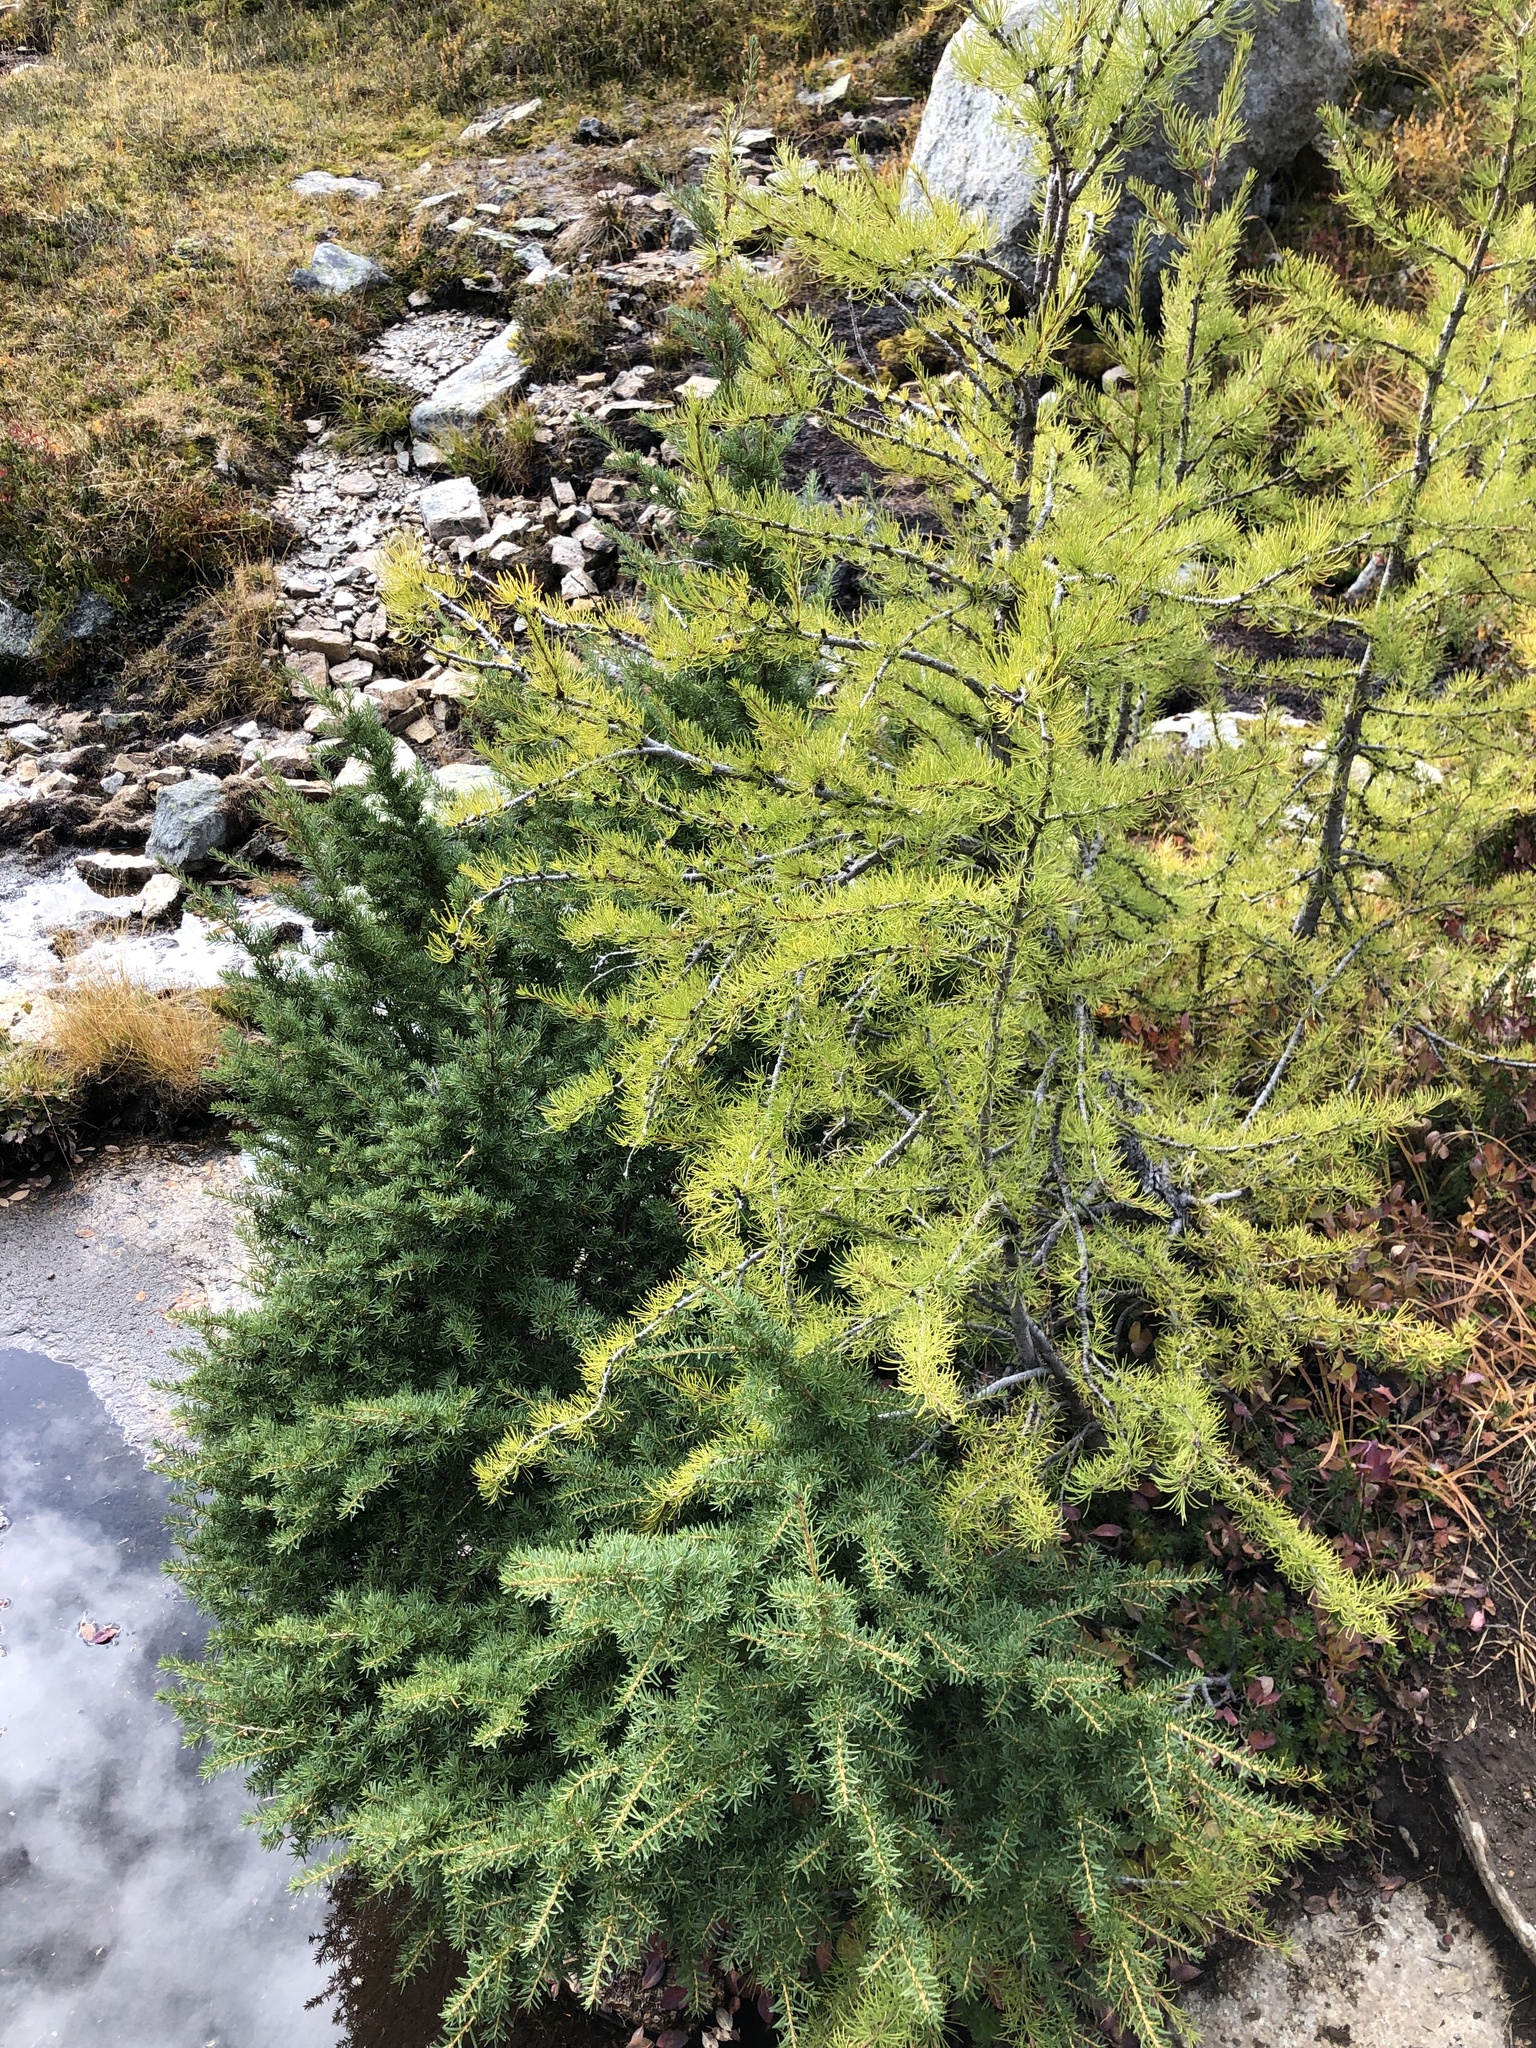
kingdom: Plantae
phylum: Tracheophyta
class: Pinopsida
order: Pinales
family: Pinaceae
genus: Tsuga
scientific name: Tsuga mertensiana
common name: Mountain hemlock
